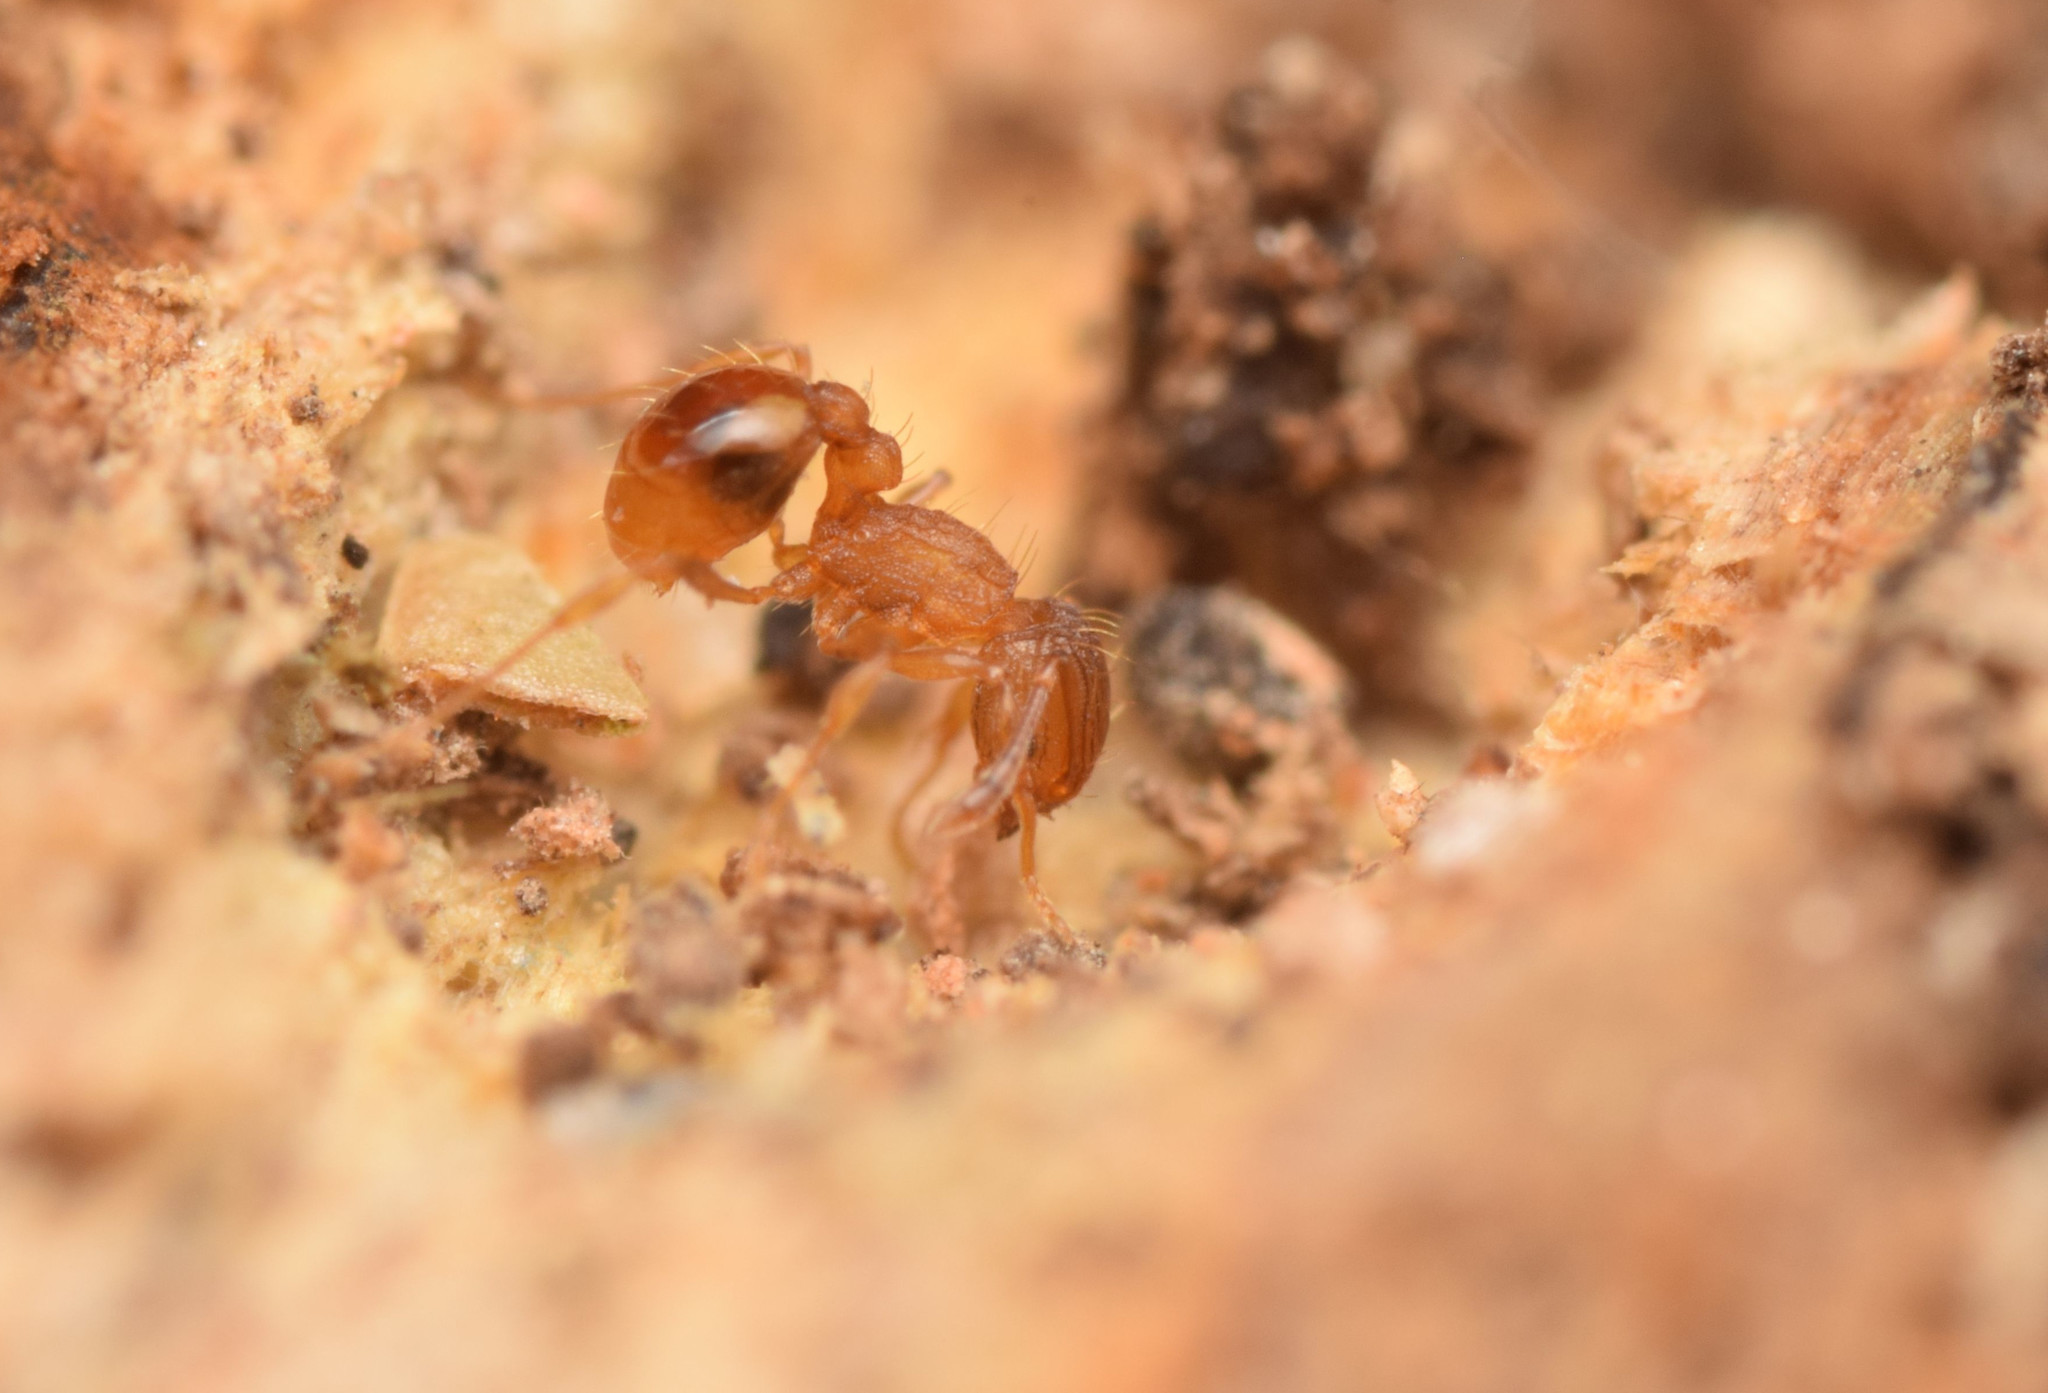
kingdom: Animalia
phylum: Arthropoda
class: Insecta
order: Hymenoptera
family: Formicidae
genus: Wasmannia
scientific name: Wasmannia auropunctata
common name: Little fire ant
